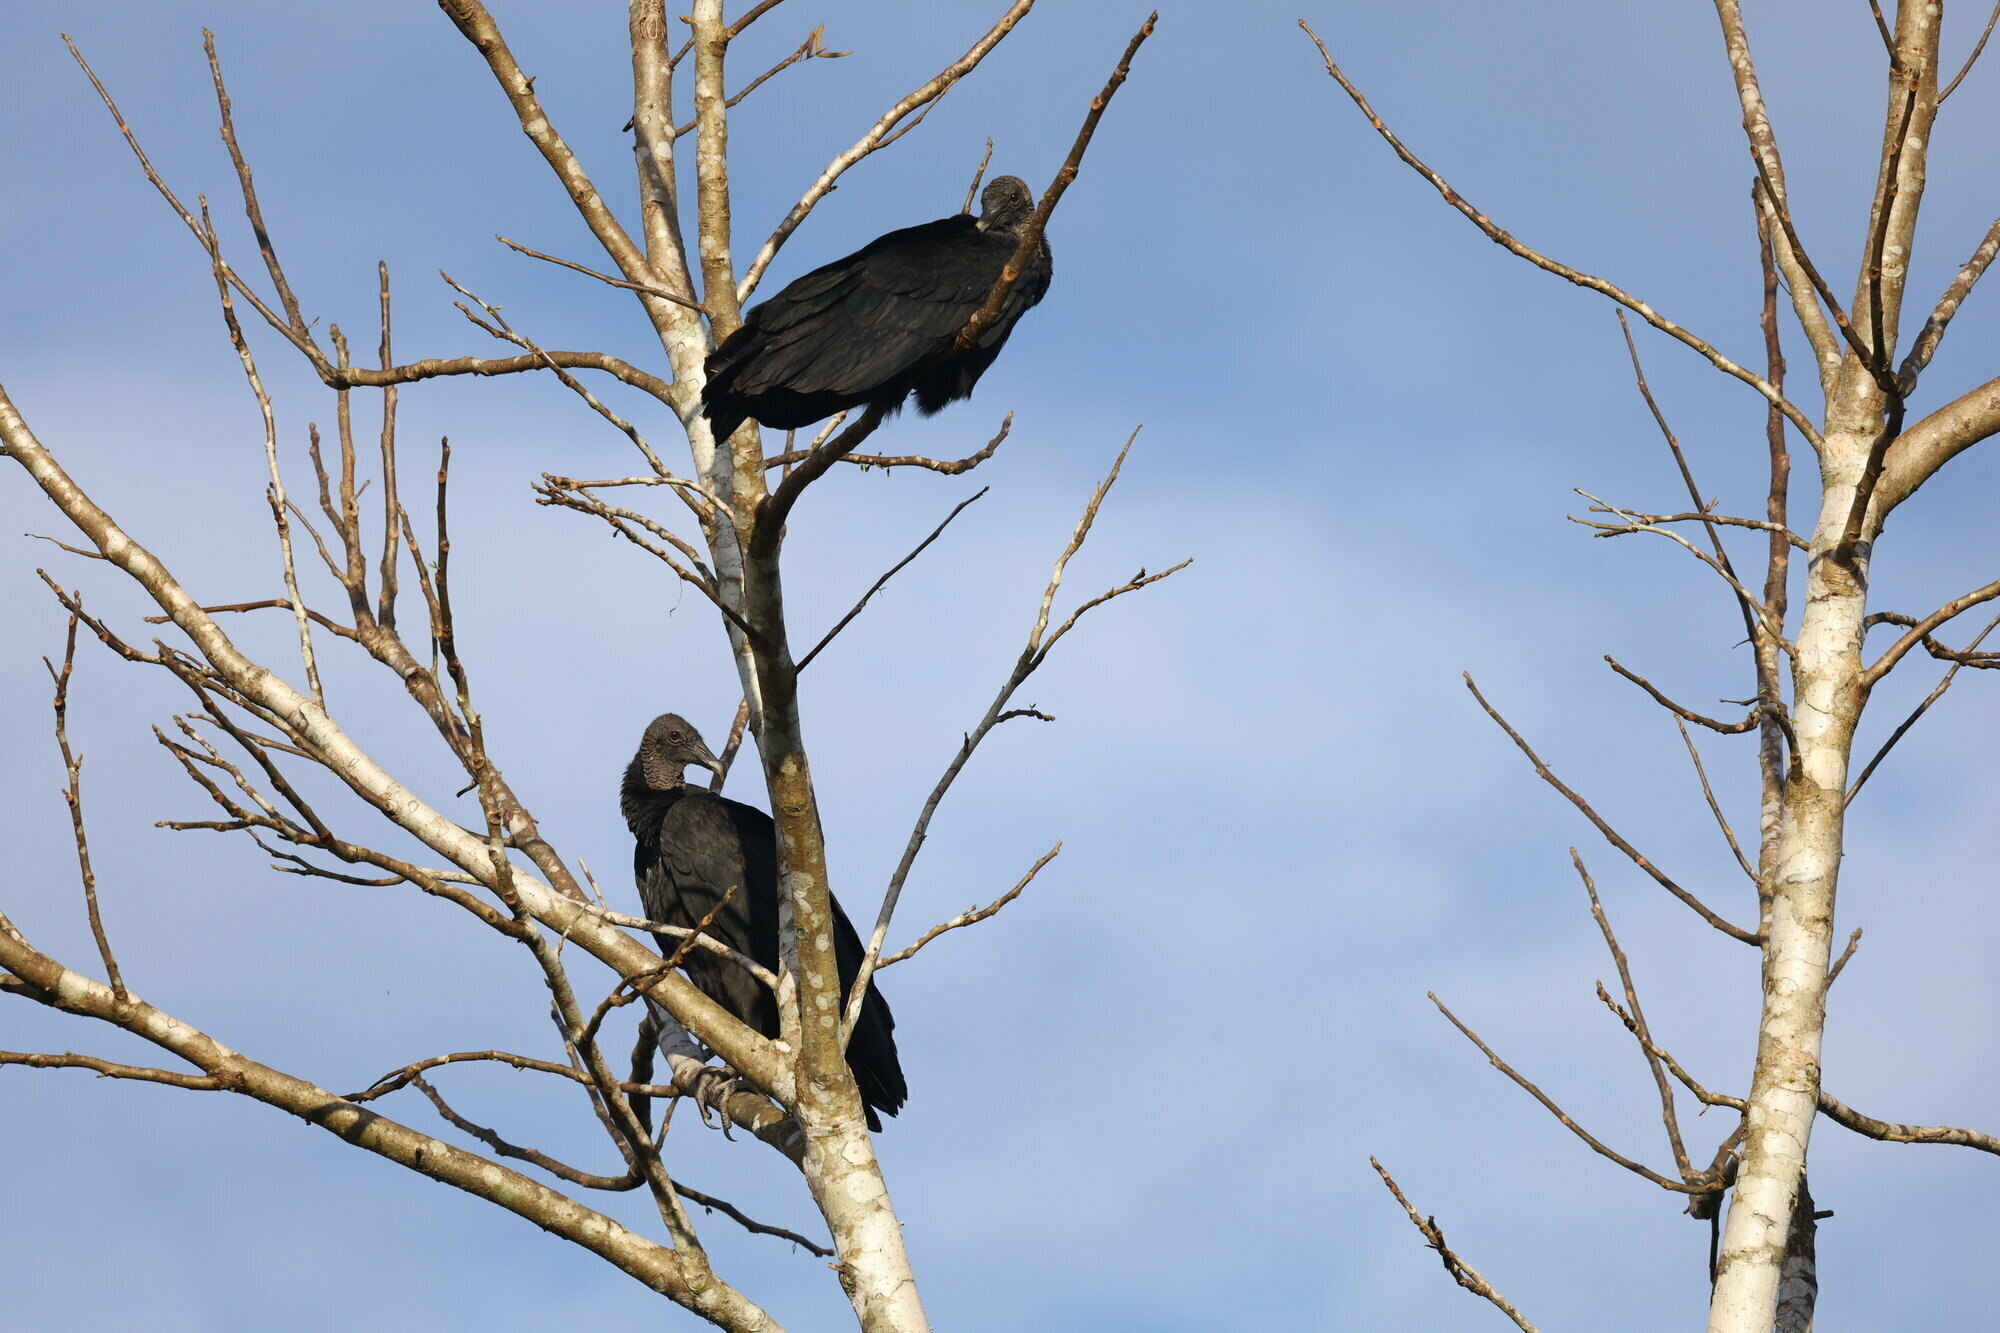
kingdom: Animalia
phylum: Chordata
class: Aves
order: Accipitriformes
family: Cathartidae
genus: Coragyps
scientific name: Coragyps atratus
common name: Black vulture
